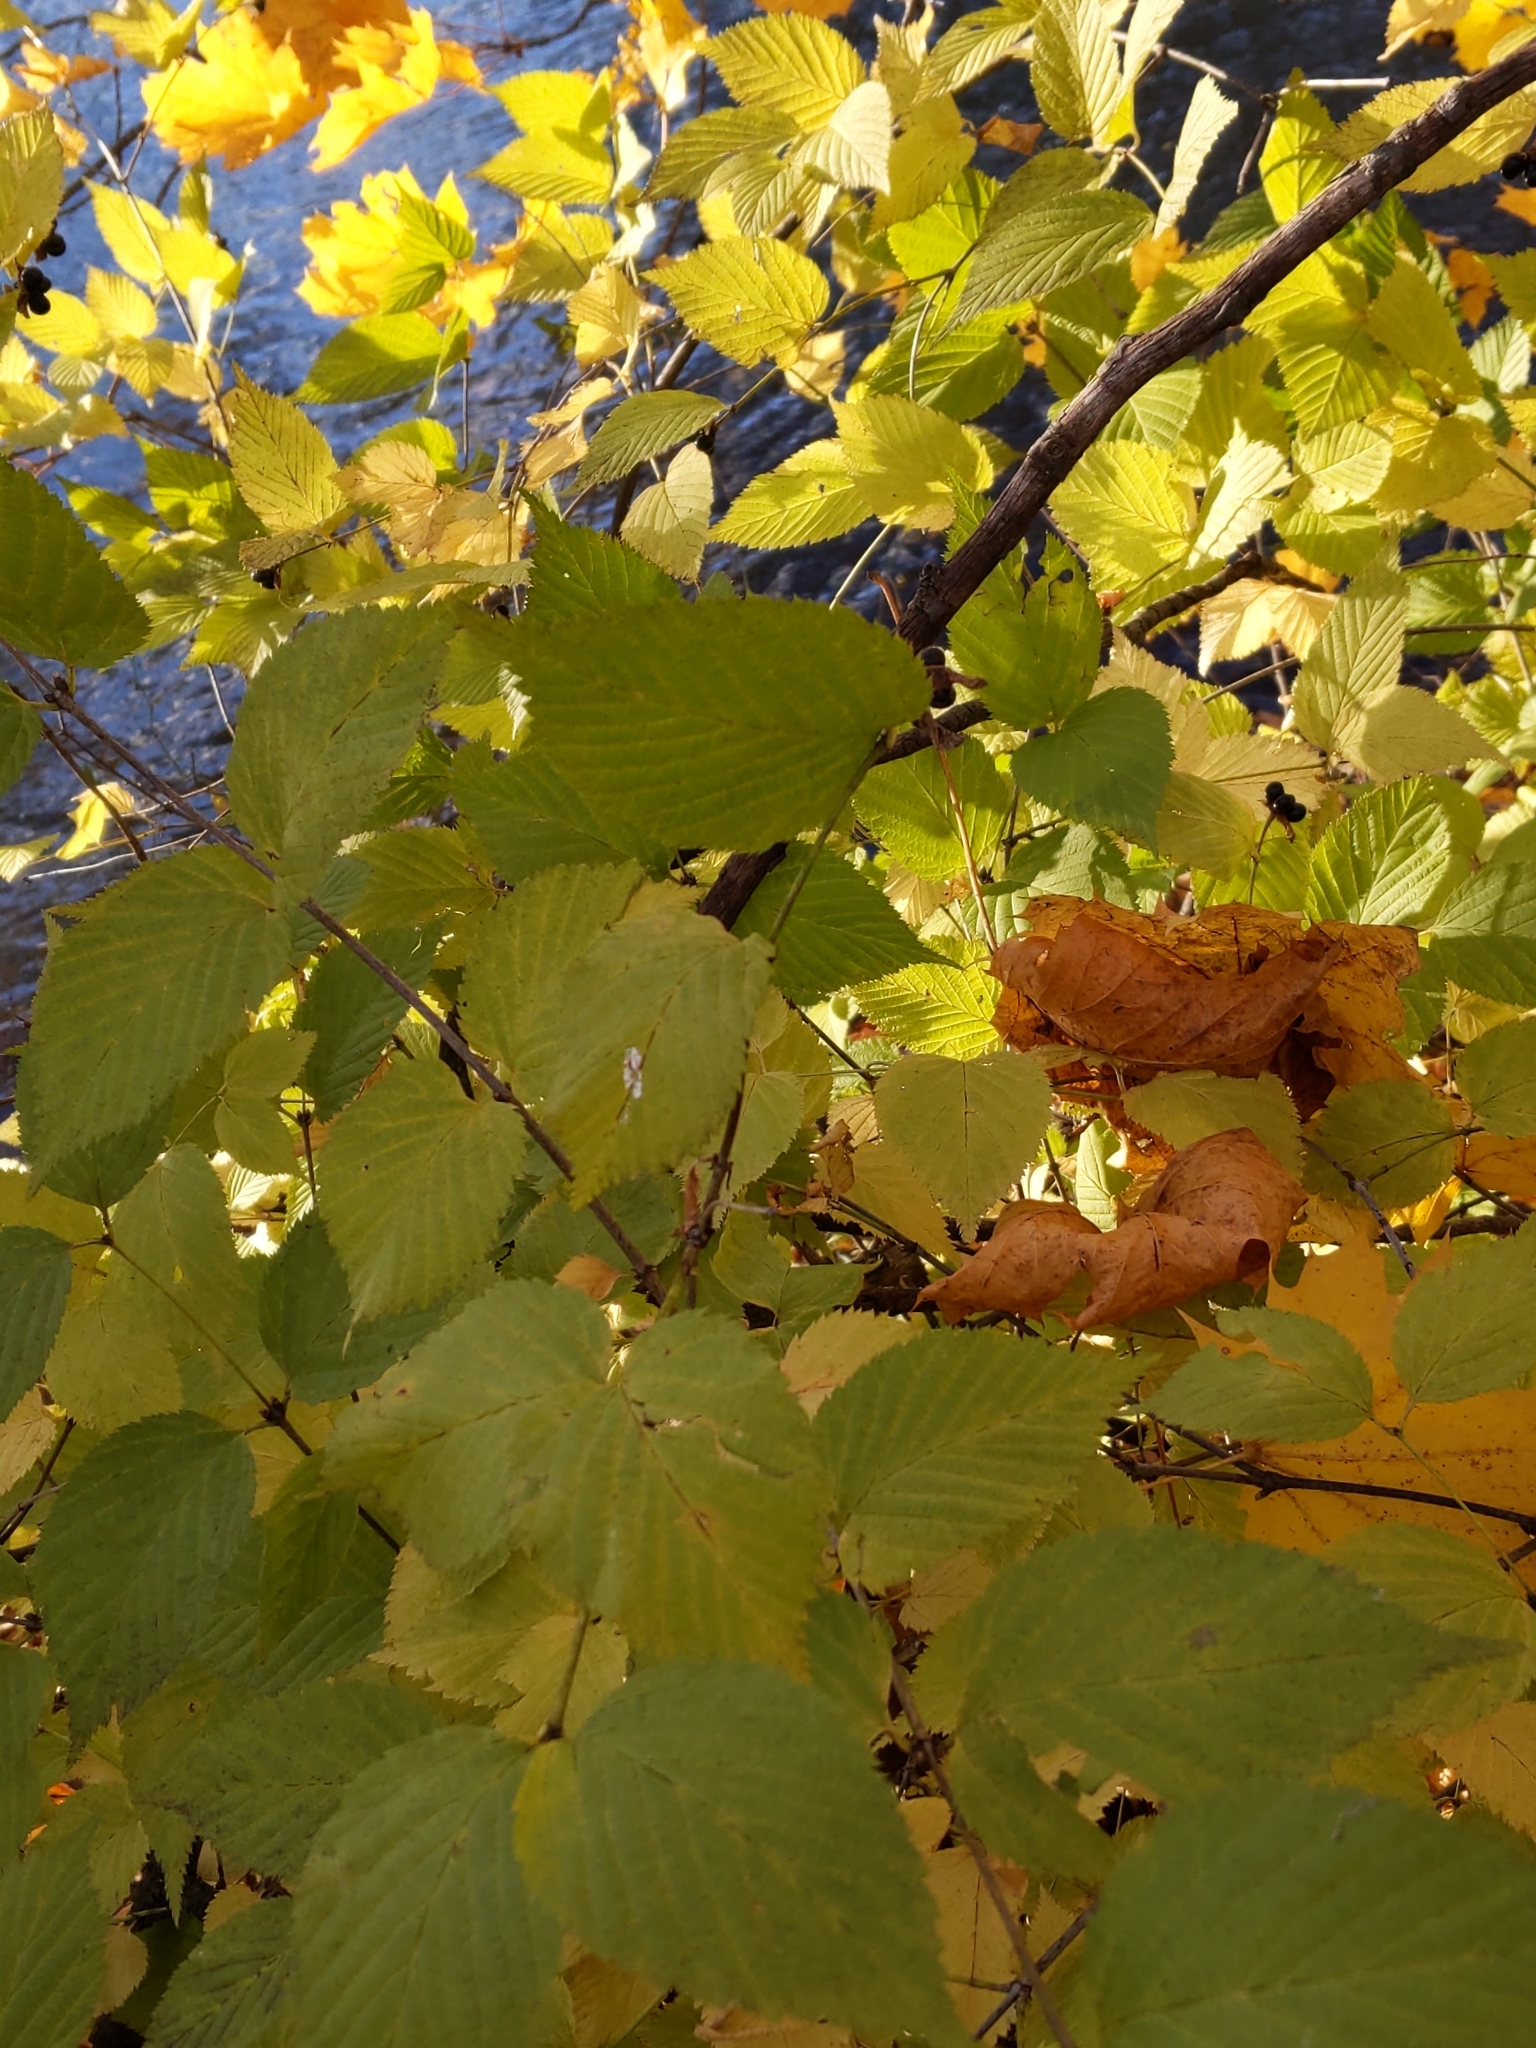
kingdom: Plantae
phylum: Tracheophyta
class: Magnoliopsida
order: Rosales
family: Rosaceae
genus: Rhodotypos
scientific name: Rhodotypos scandens
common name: Jetbead
